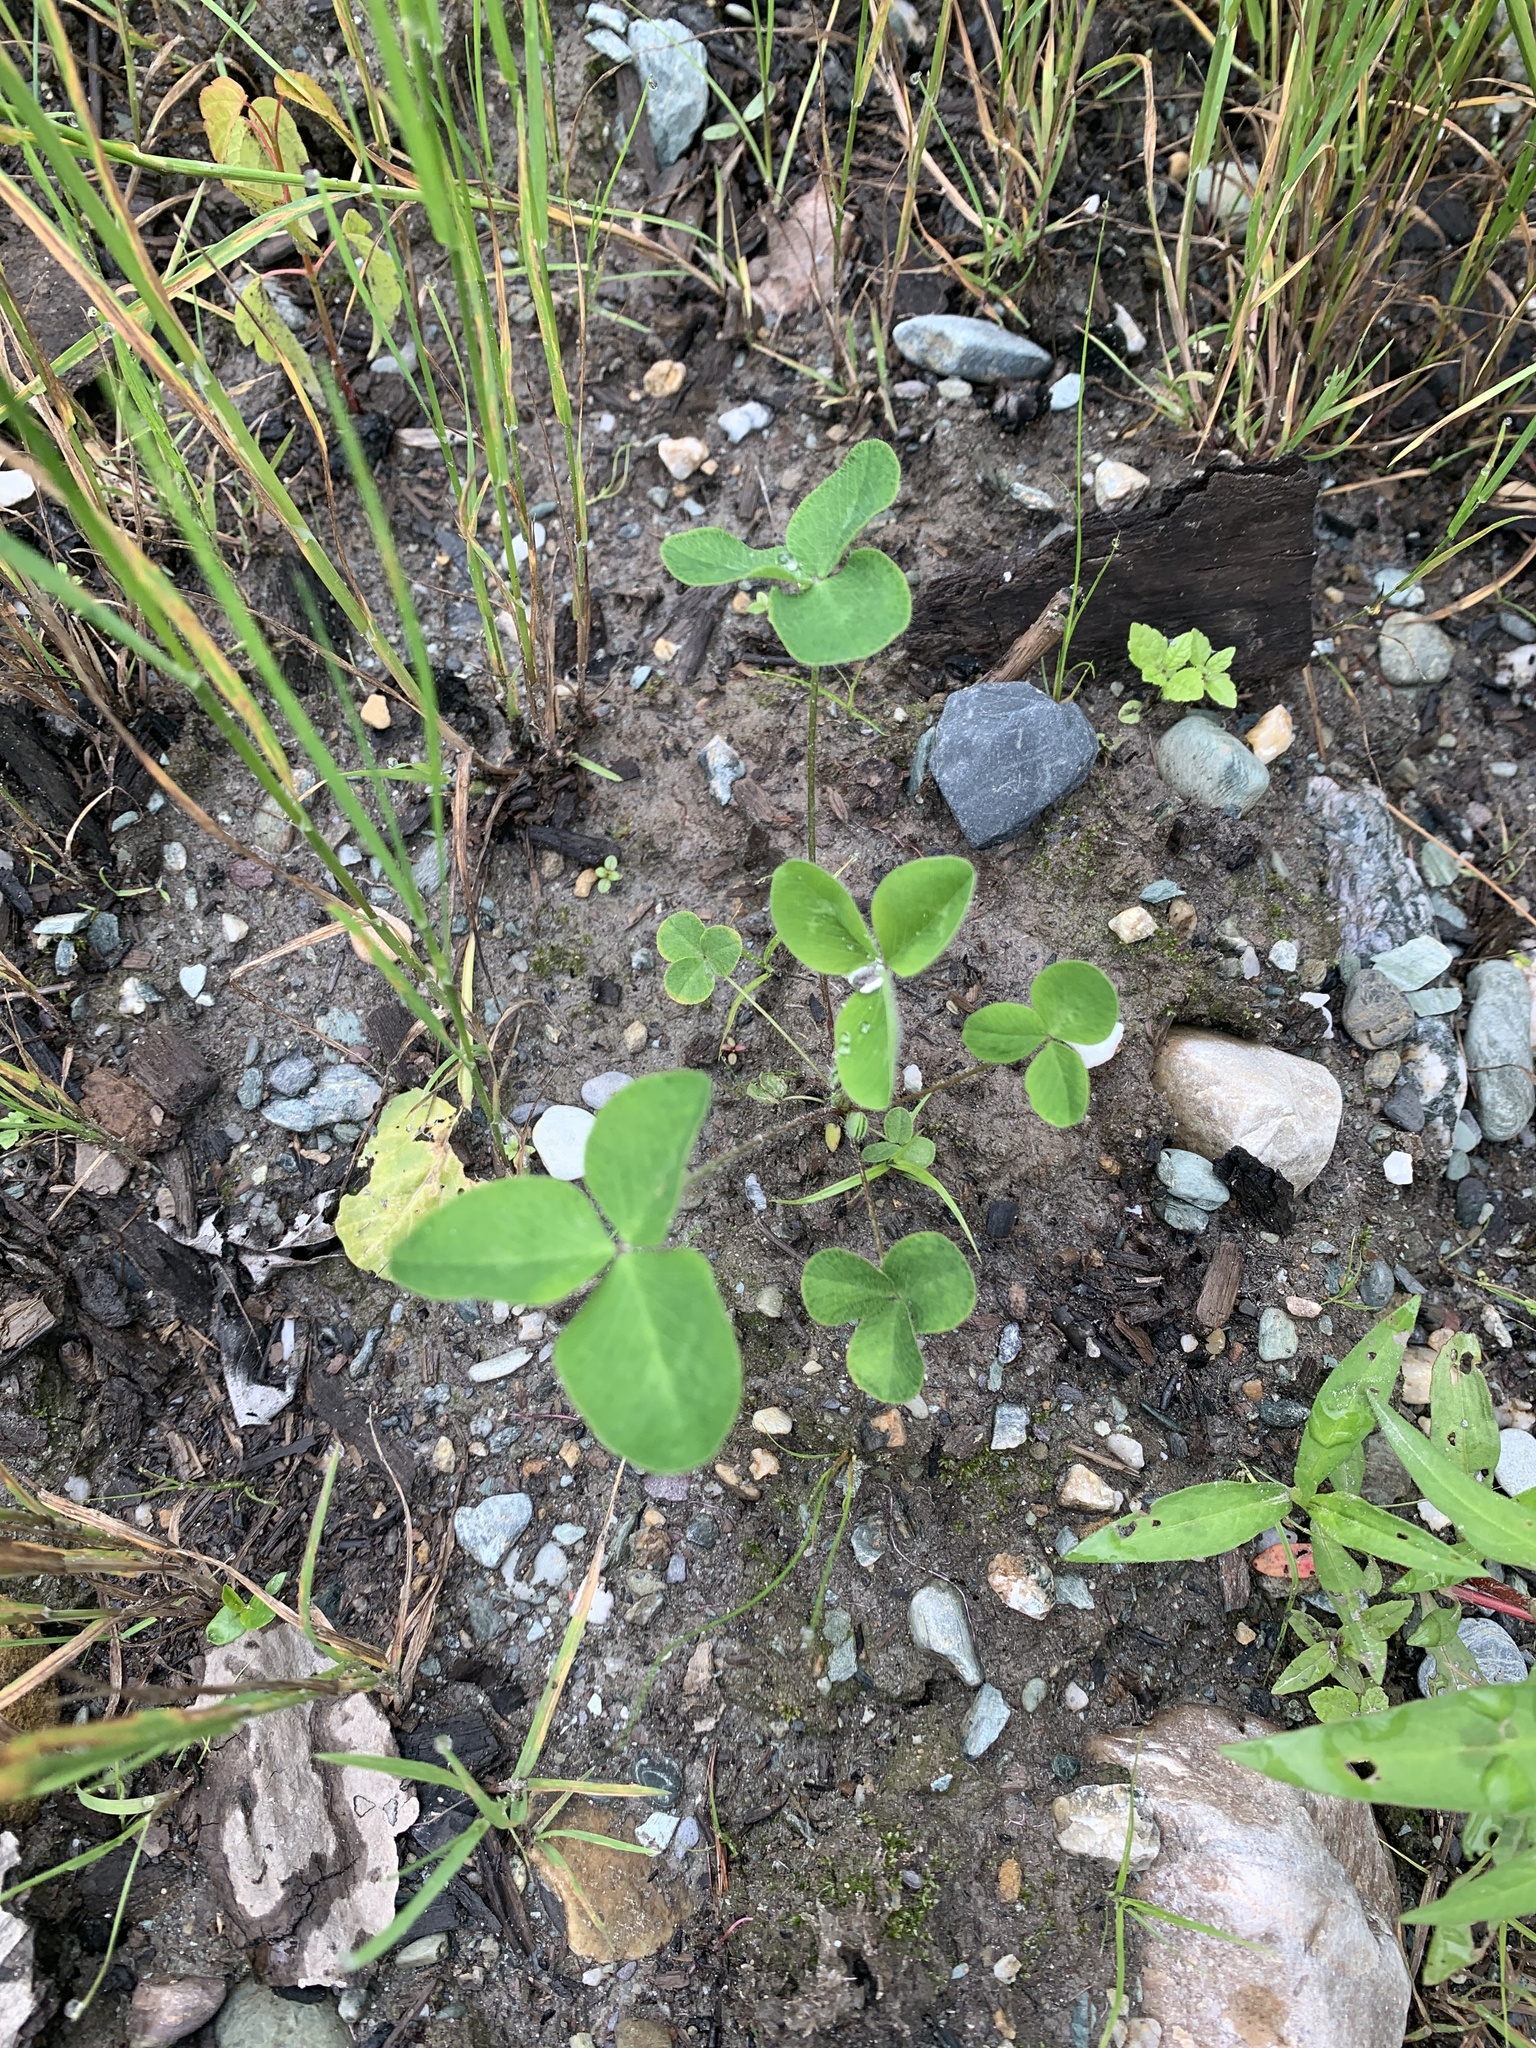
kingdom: Plantae
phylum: Tracheophyta
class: Magnoliopsida
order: Fabales
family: Fabaceae
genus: Trifolium
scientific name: Trifolium pratense
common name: Red clover
